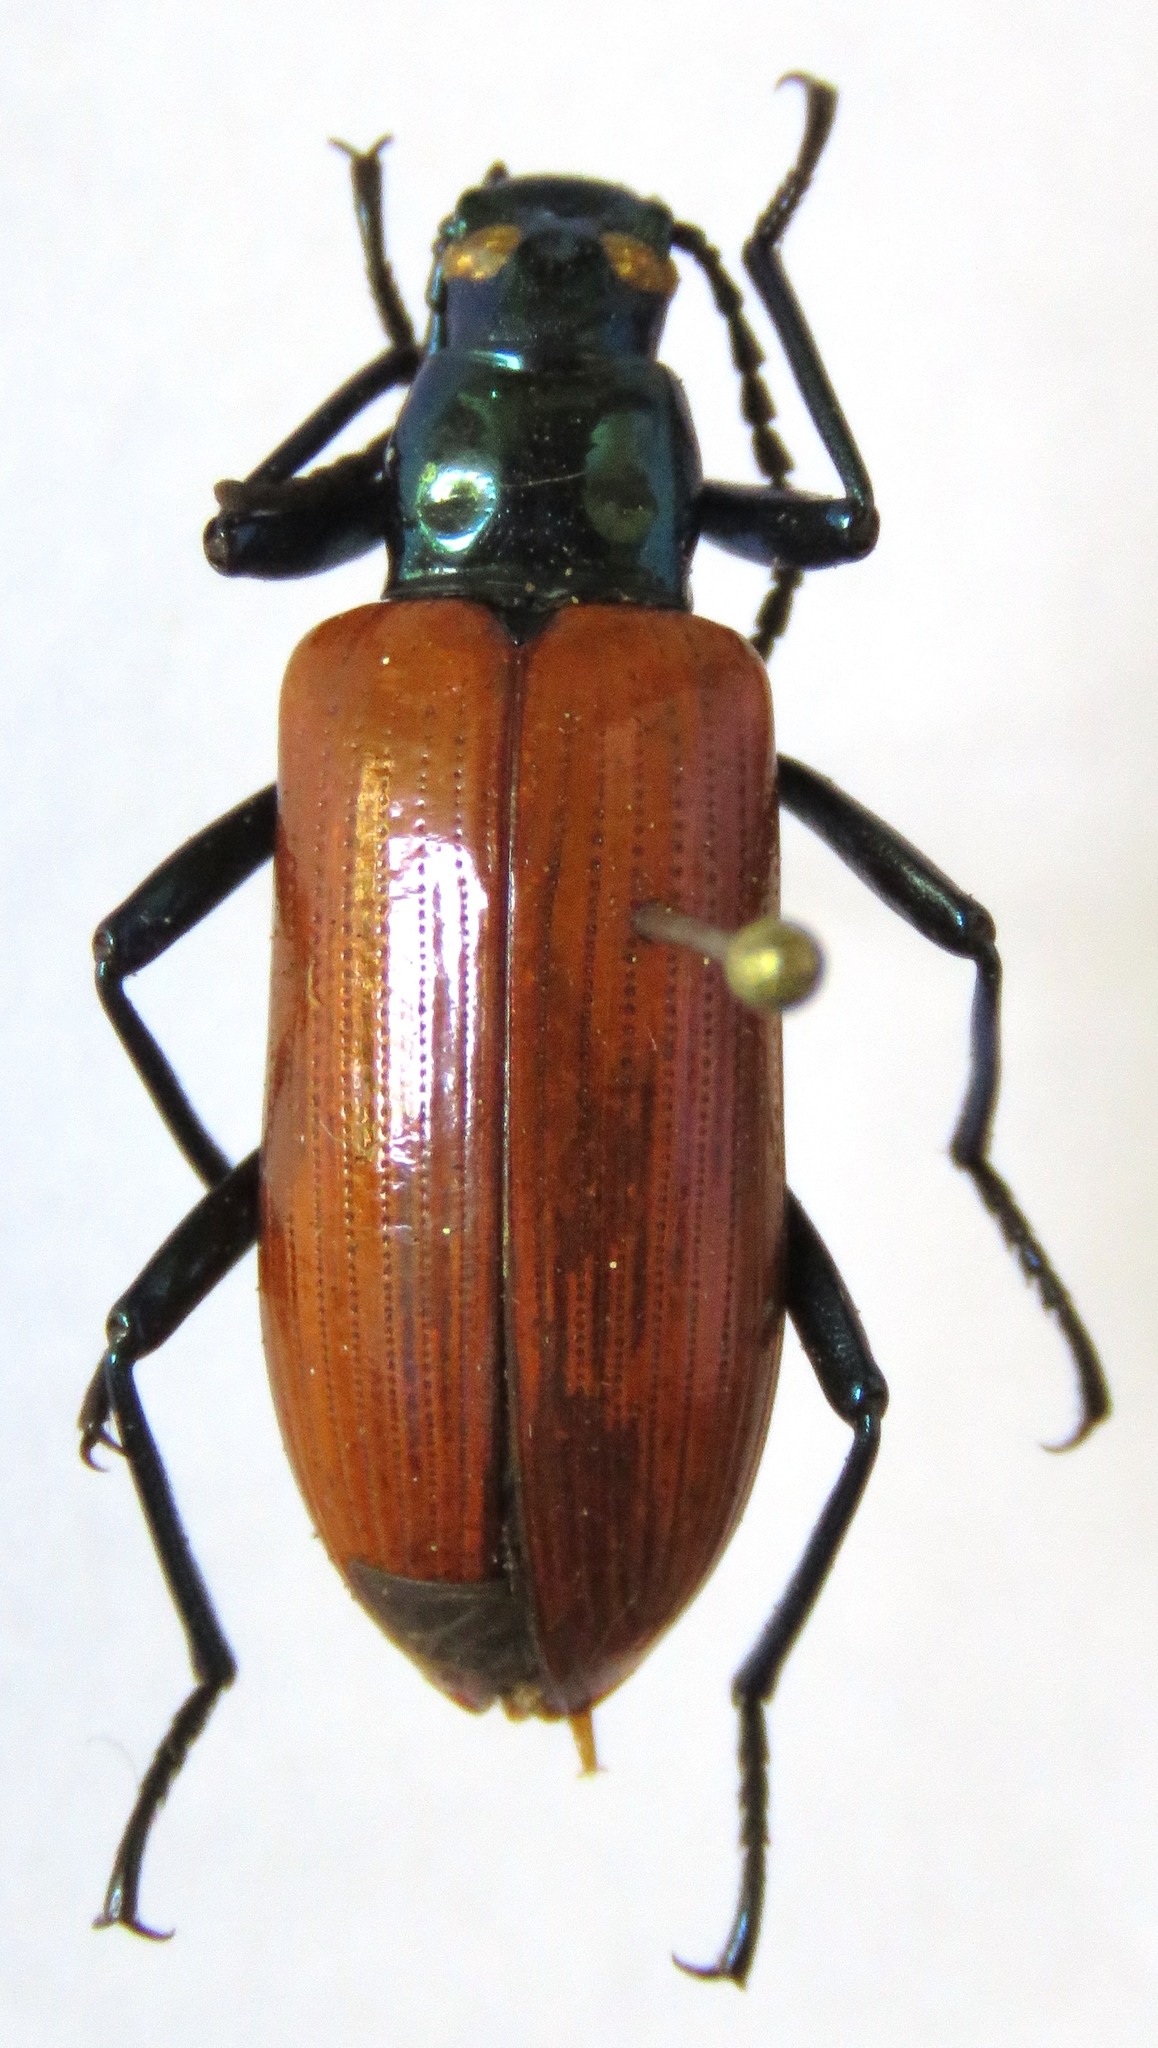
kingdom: Animalia
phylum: Arthropoda
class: Insecta
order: Coleoptera
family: Tenebrionidae
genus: Strongylium
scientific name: Strongylium
